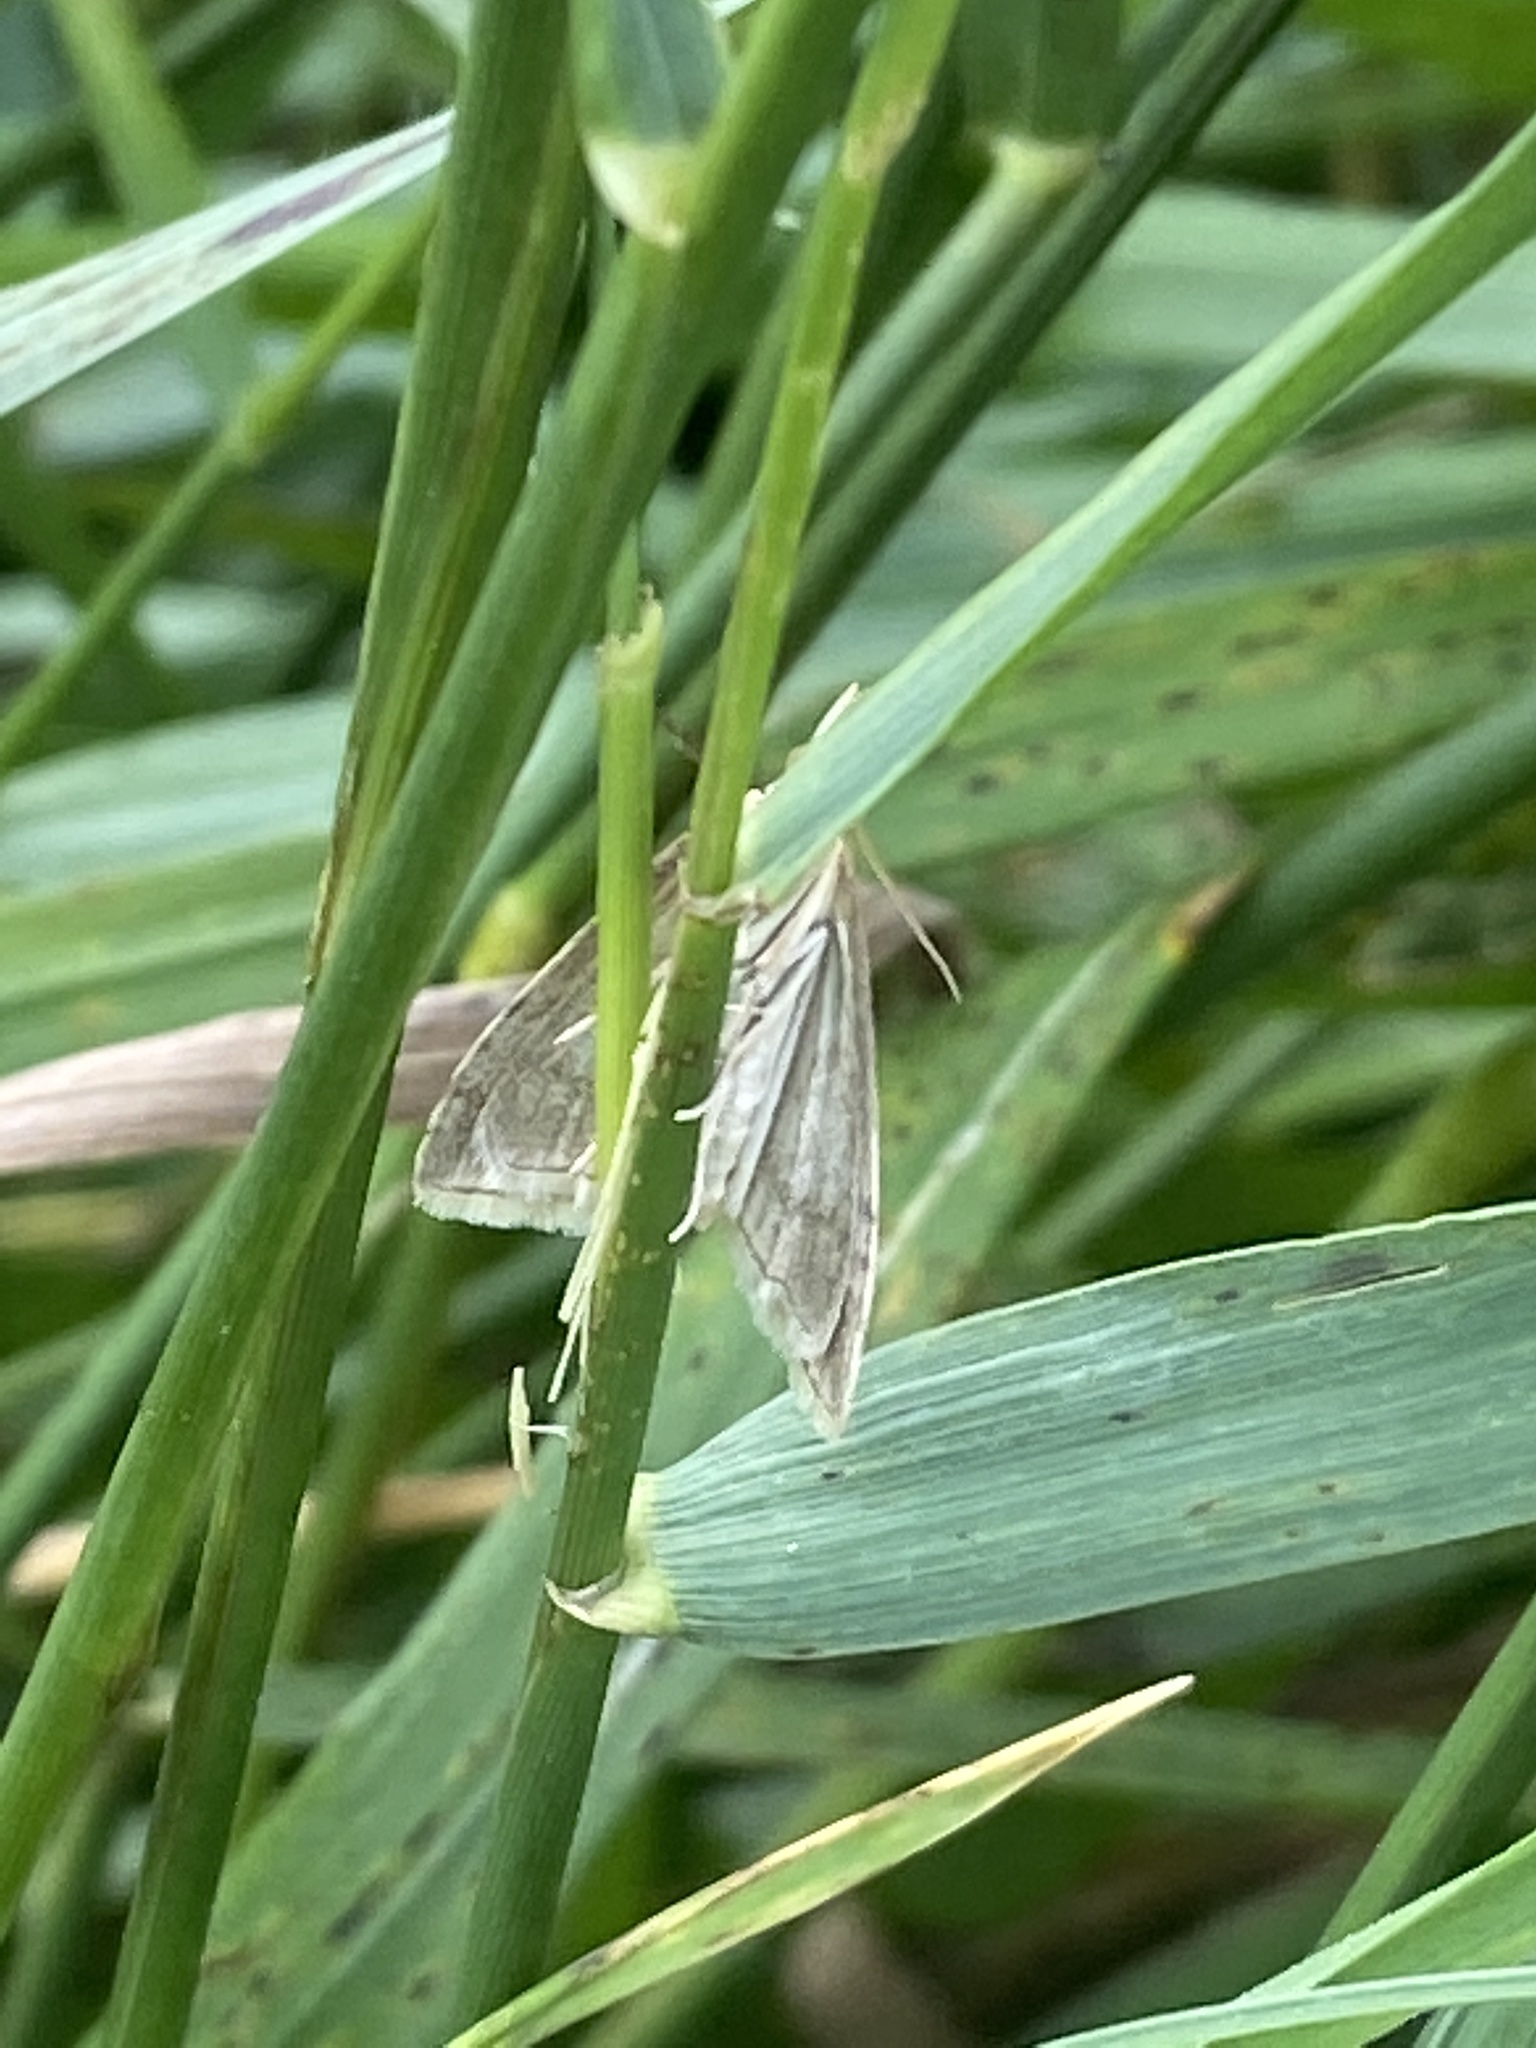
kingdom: Animalia
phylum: Arthropoda
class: Insecta
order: Lepidoptera
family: Crambidae
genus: Udea
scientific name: Udea lutealis
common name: Pale straw pearl
